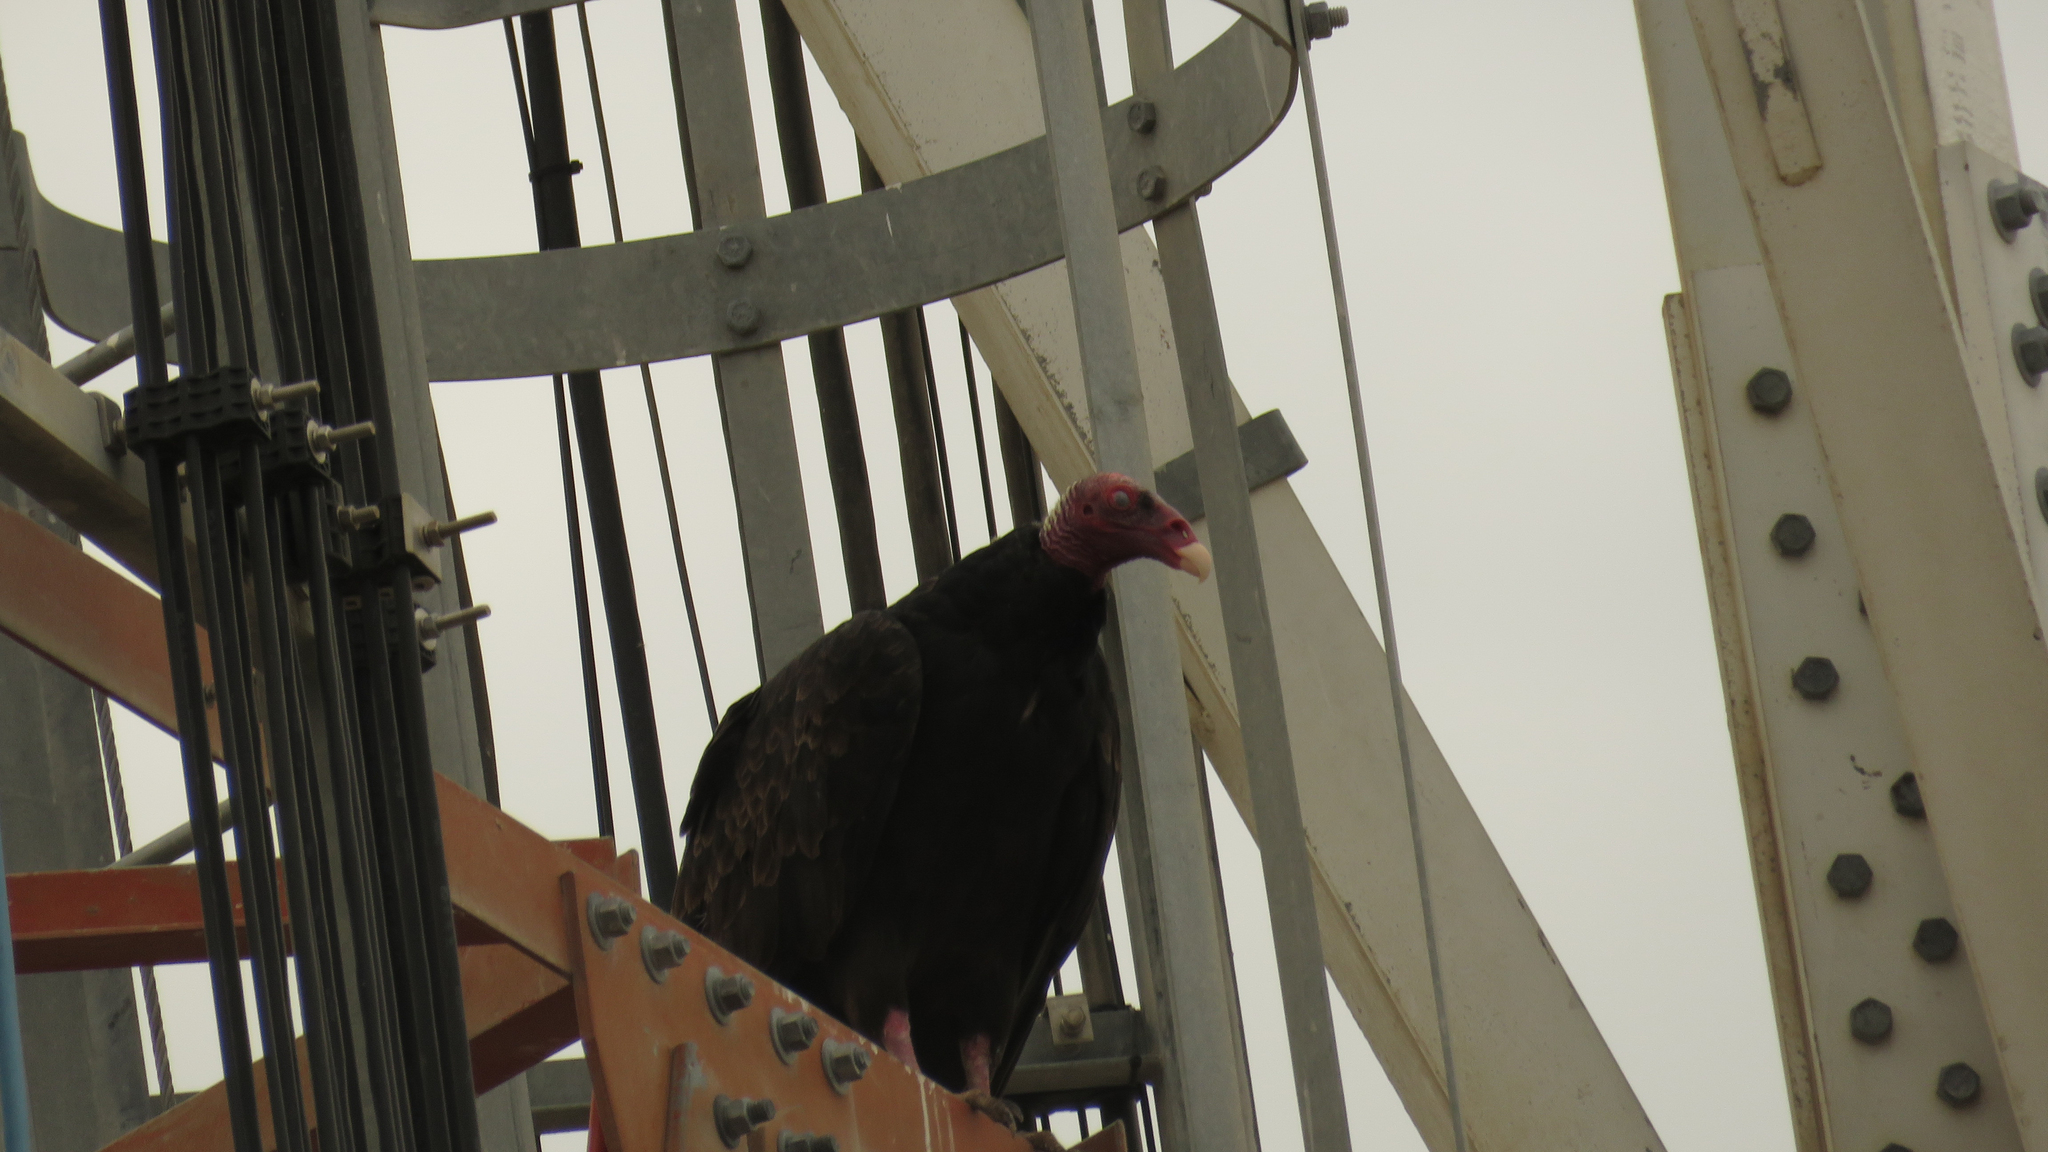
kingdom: Animalia
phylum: Chordata
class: Aves
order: Accipitriformes
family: Cathartidae
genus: Cathartes
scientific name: Cathartes aura
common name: Turkey vulture
